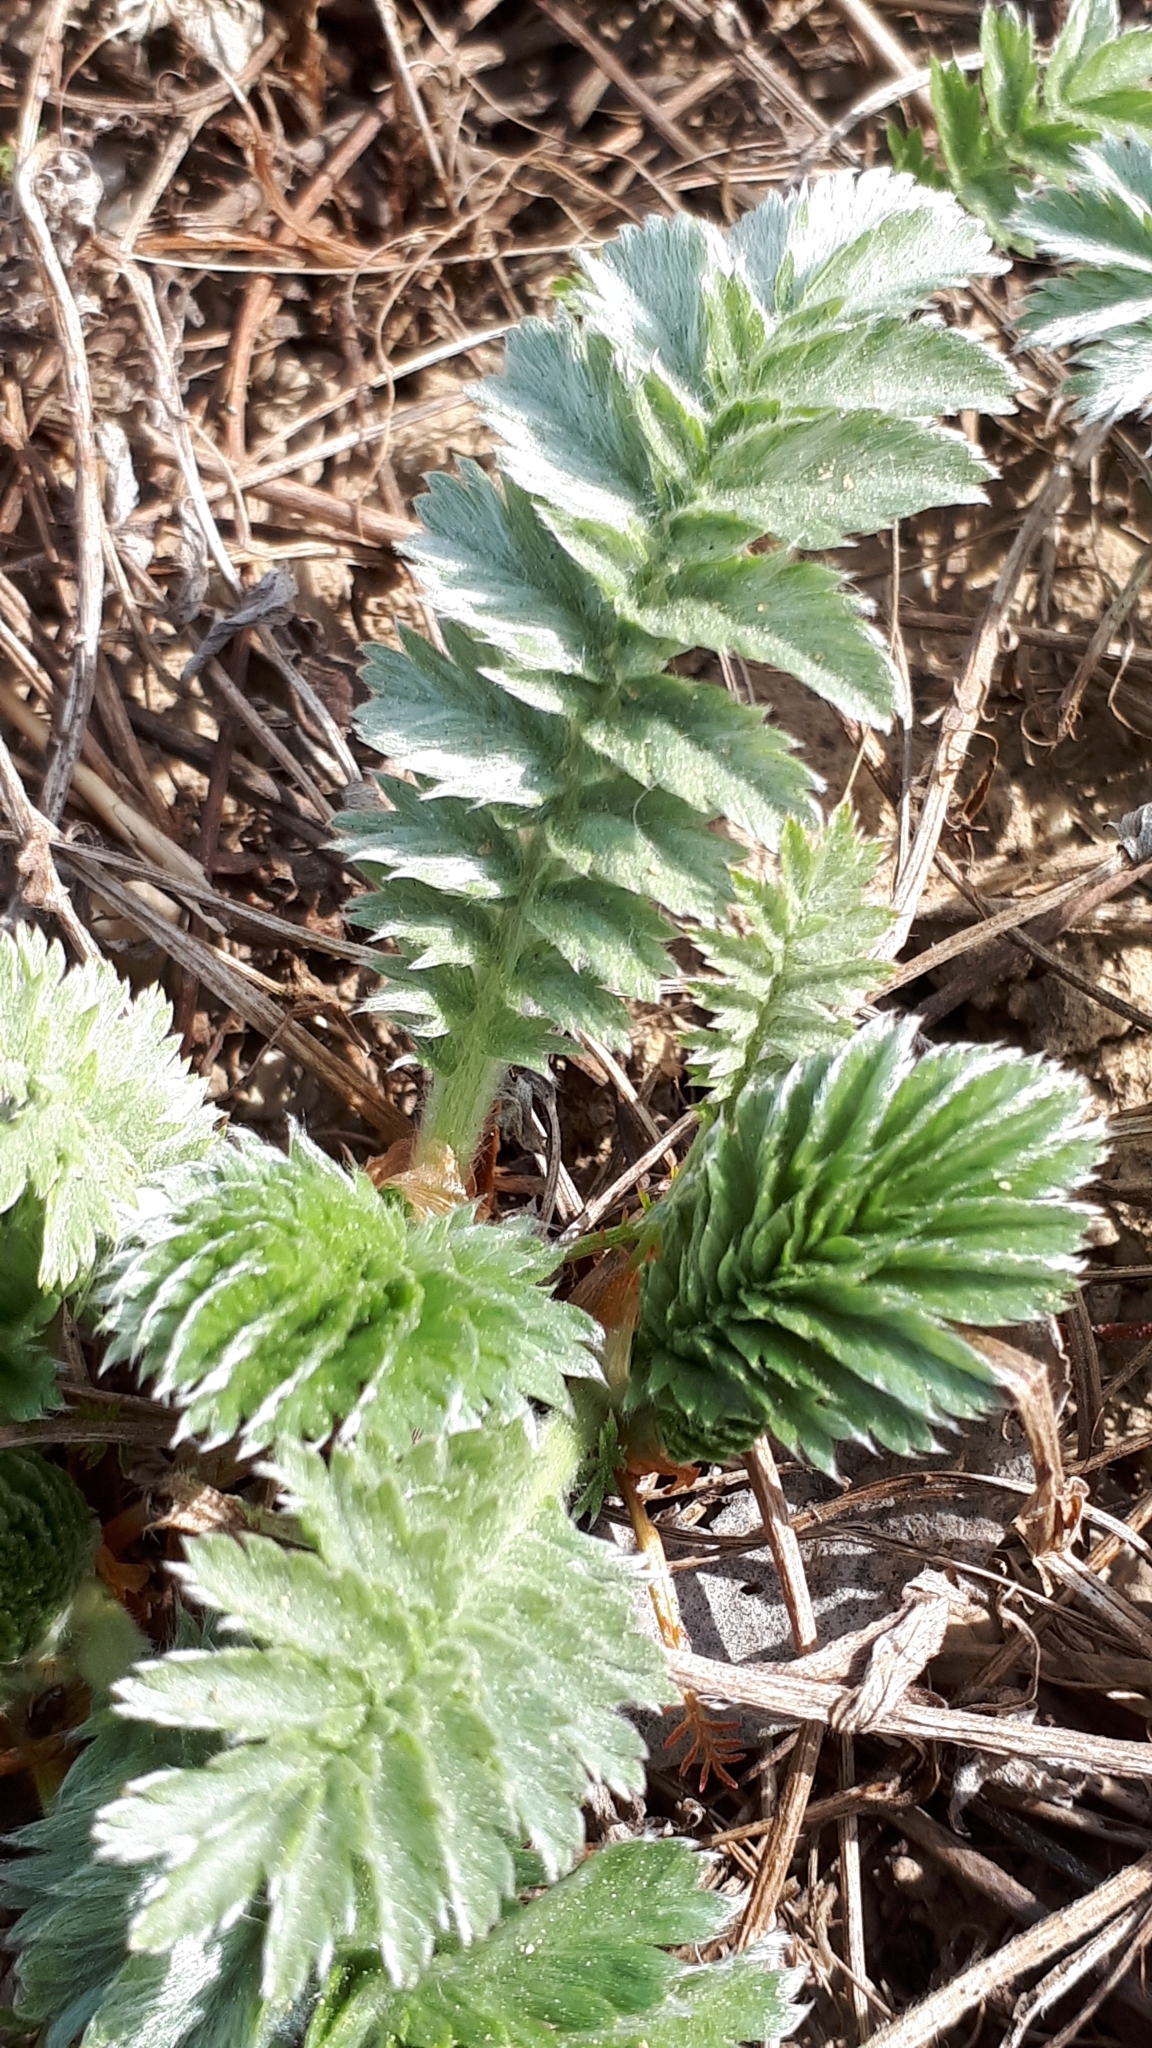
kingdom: Plantae
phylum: Tracheophyta
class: Magnoliopsida
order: Rosales
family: Rosaceae
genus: Argentina
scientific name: Argentina anserina
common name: Common silverweed
